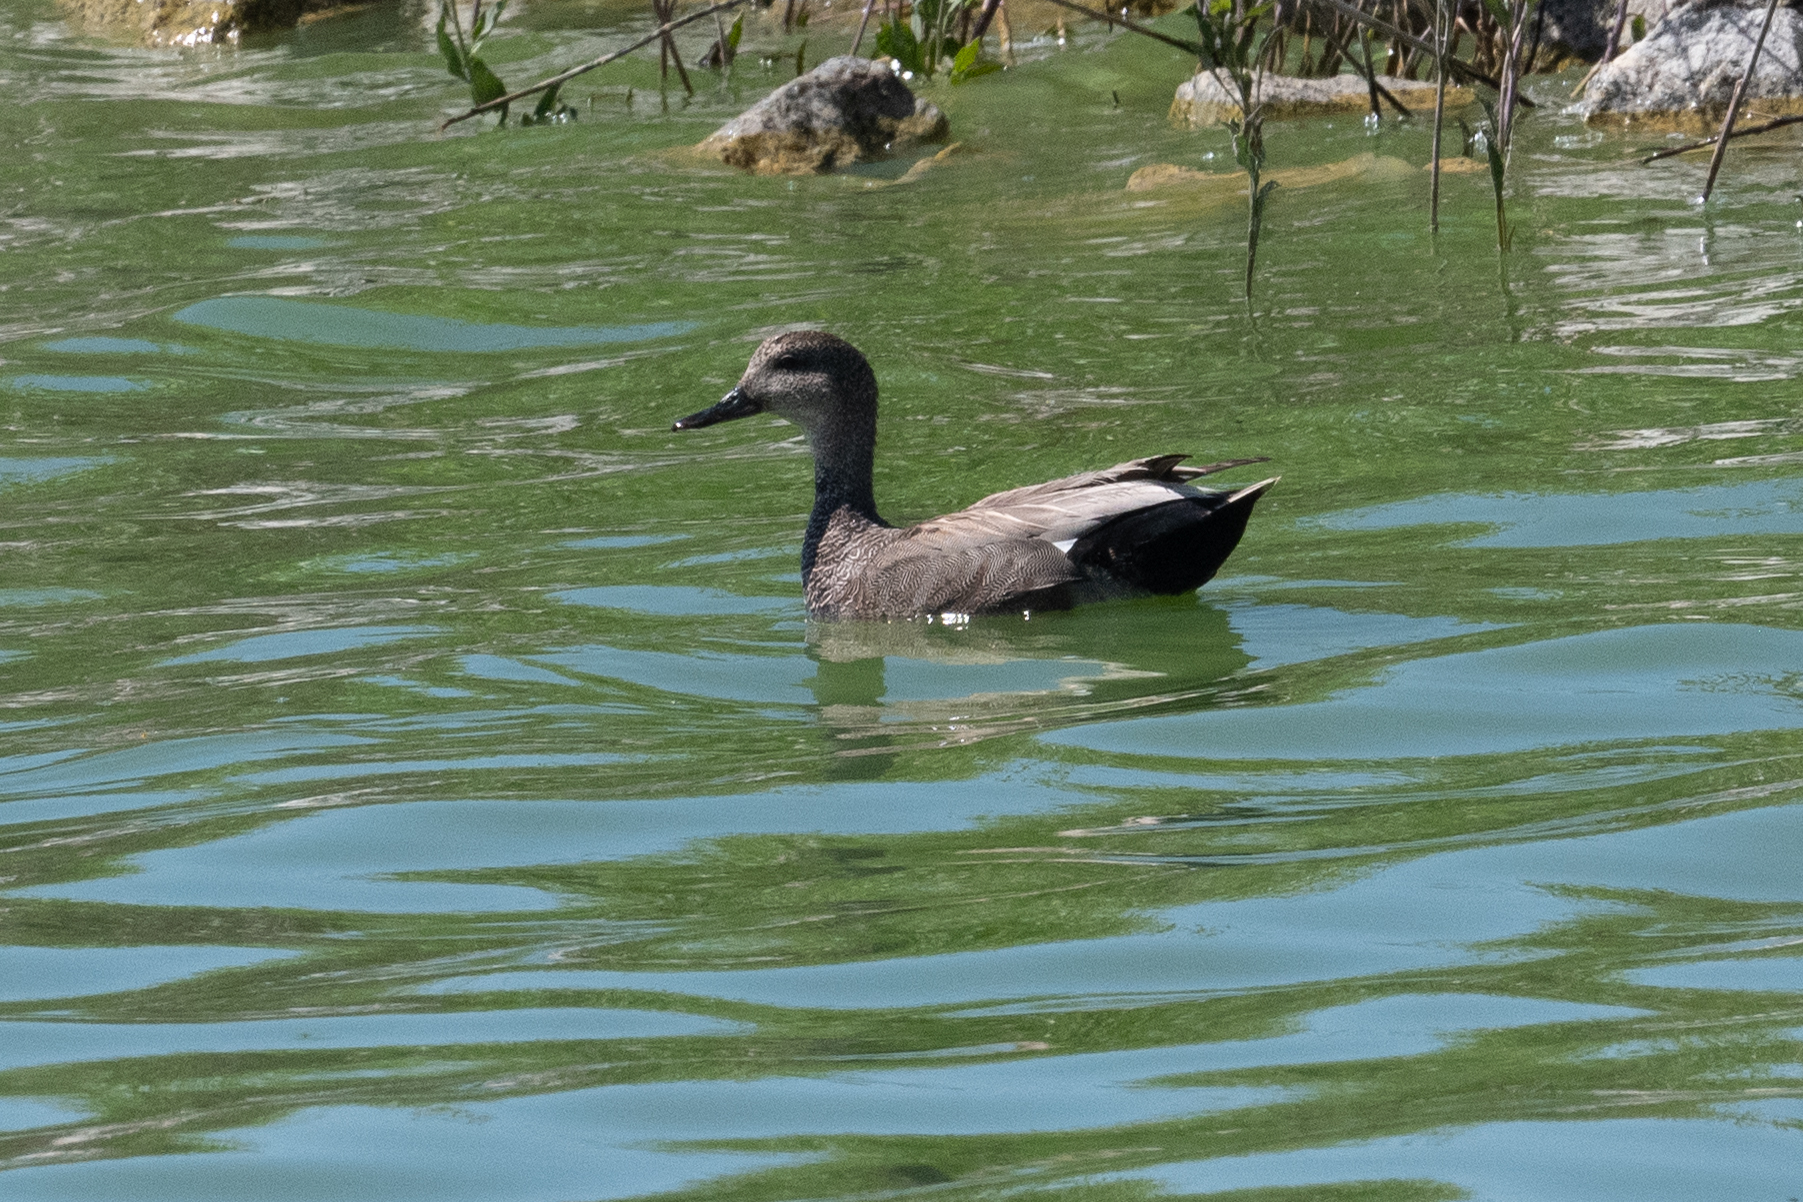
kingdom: Animalia
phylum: Chordata
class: Aves
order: Anseriformes
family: Anatidae
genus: Mareca
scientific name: Mareca strepera
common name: Gadwall
